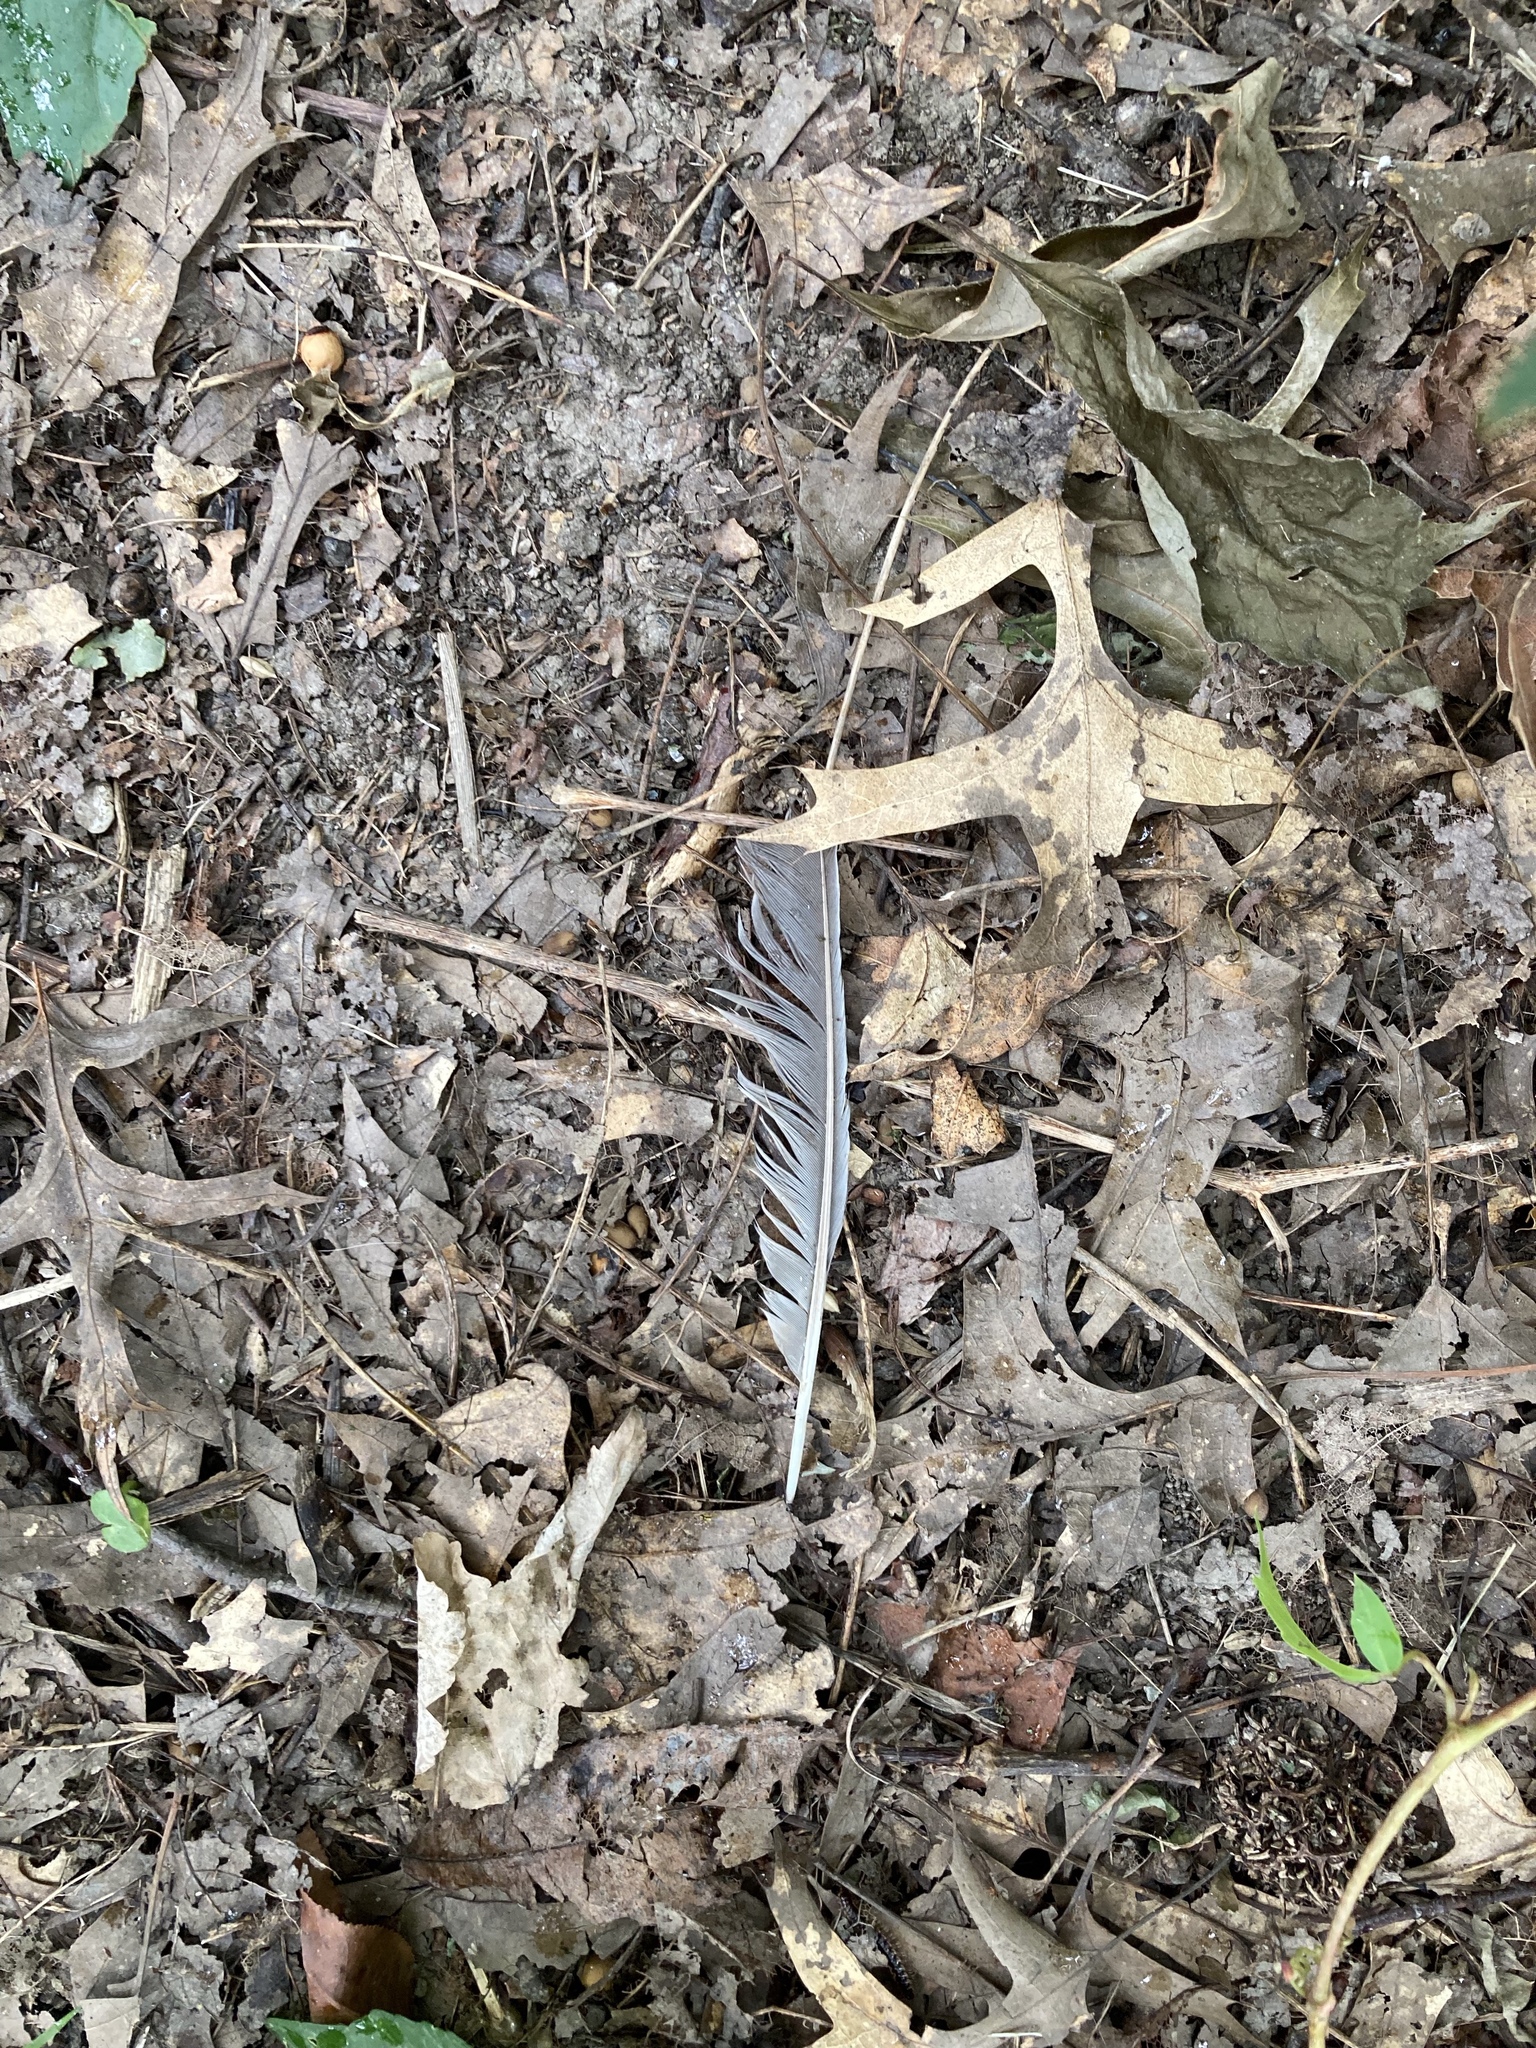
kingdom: Animalia
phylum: Chordata
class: Aves
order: Passeriformes
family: Corvidae
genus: Cyanocitta
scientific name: Cyanocitta cristata
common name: Blue jay
